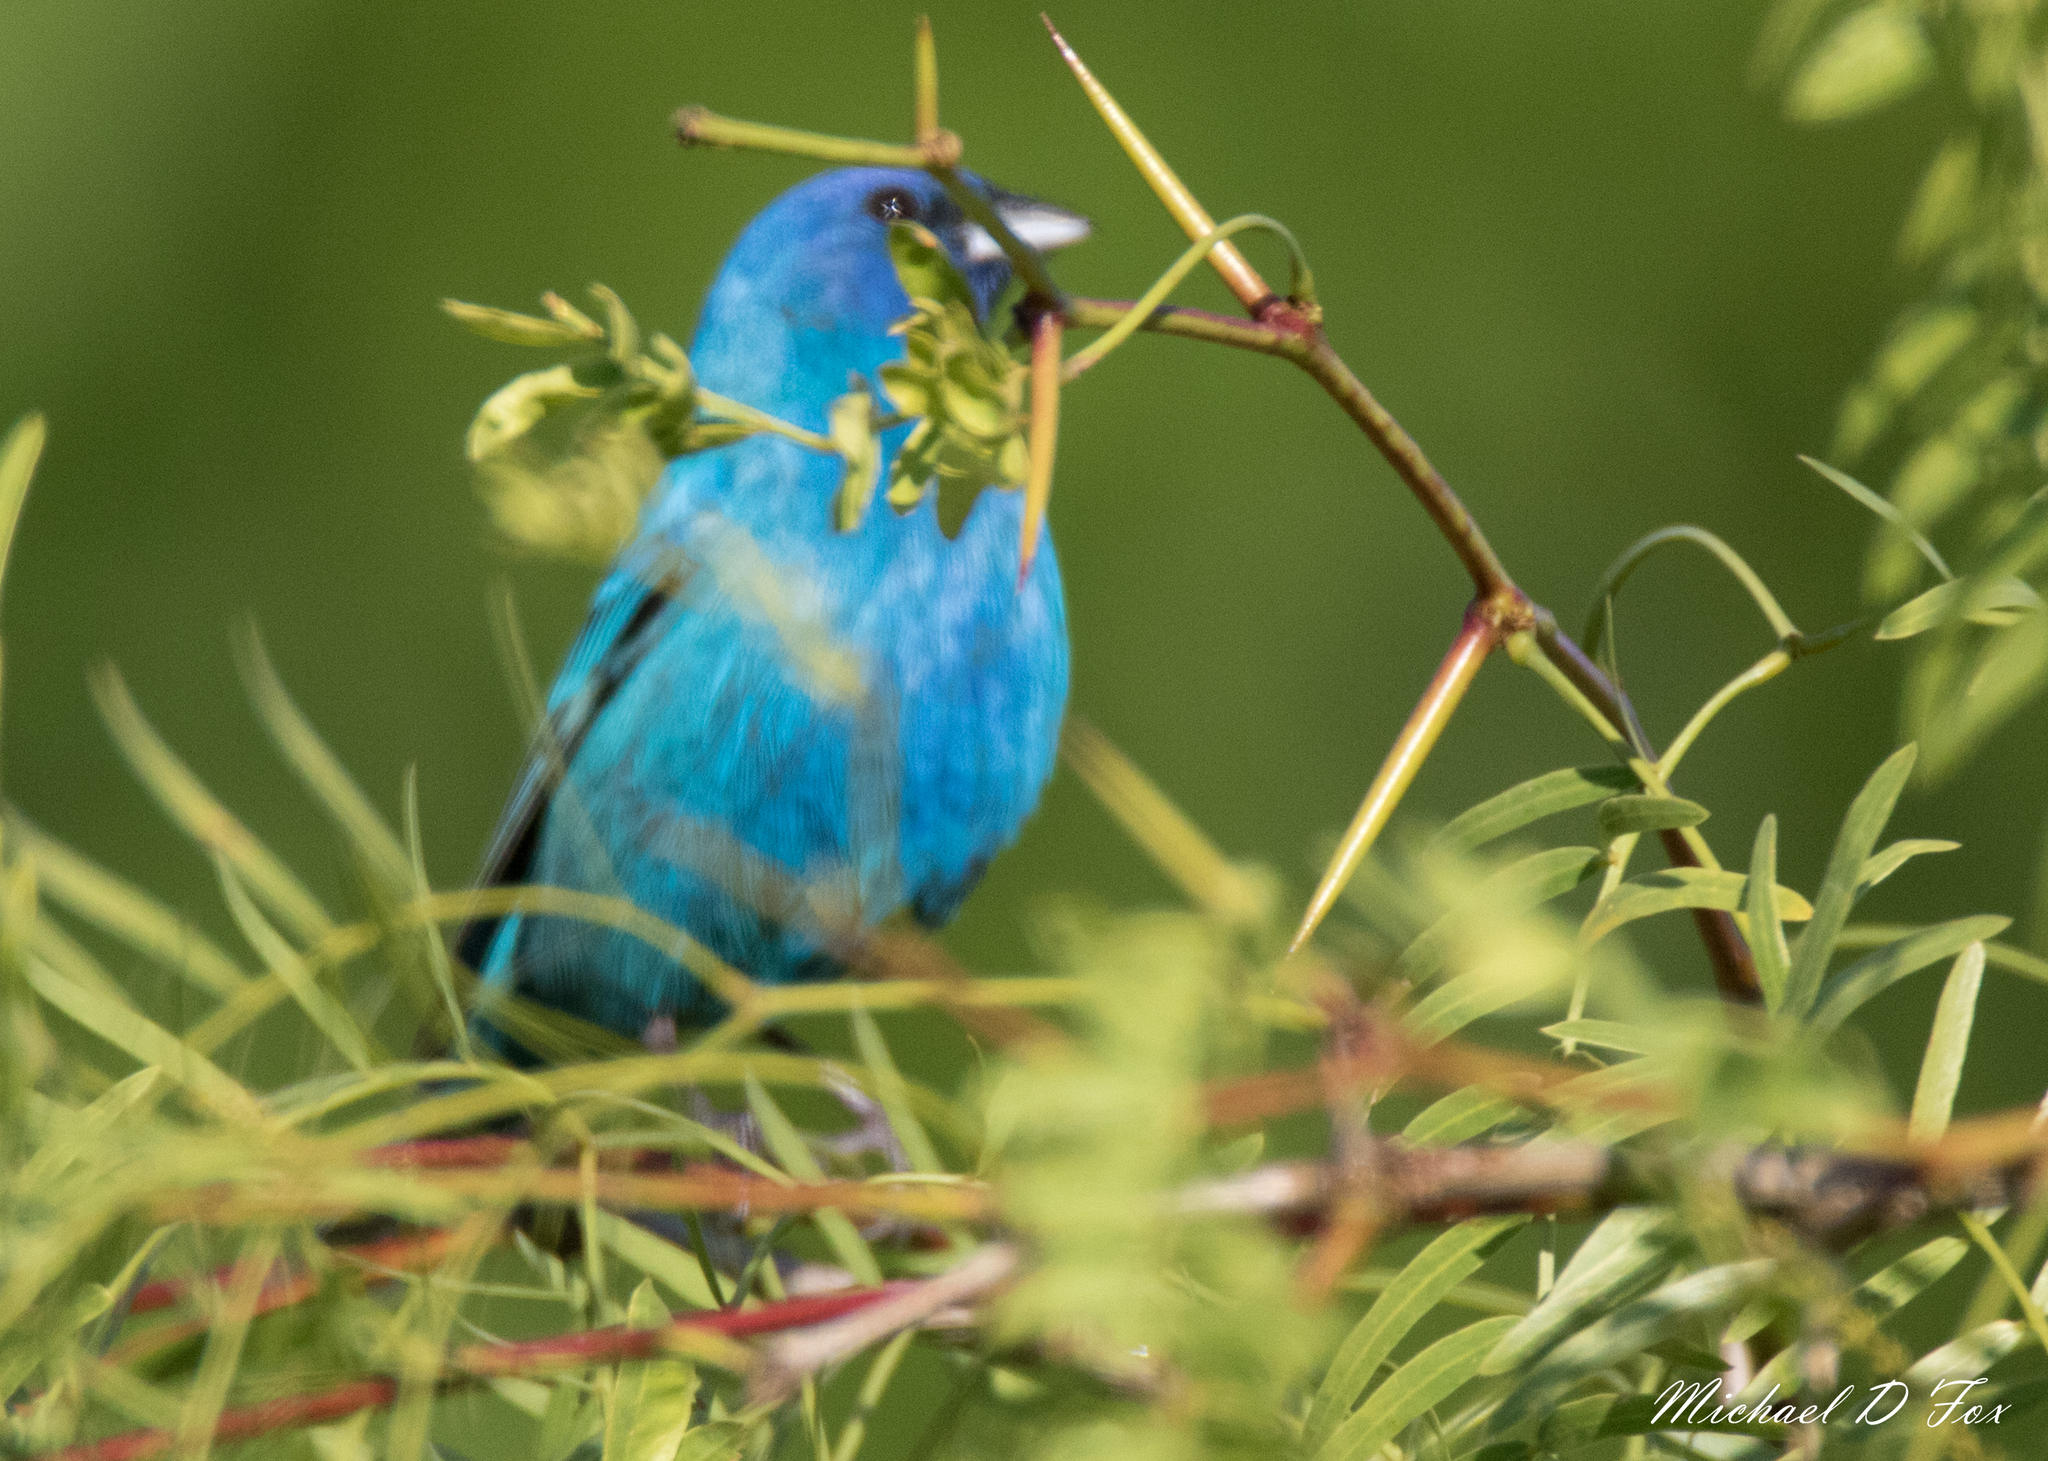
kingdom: Animalia
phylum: Chordata
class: Aves
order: Passeriformes
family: Cardinalidae
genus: Passerina
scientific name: Passerina cyanea
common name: Indigo bunting
